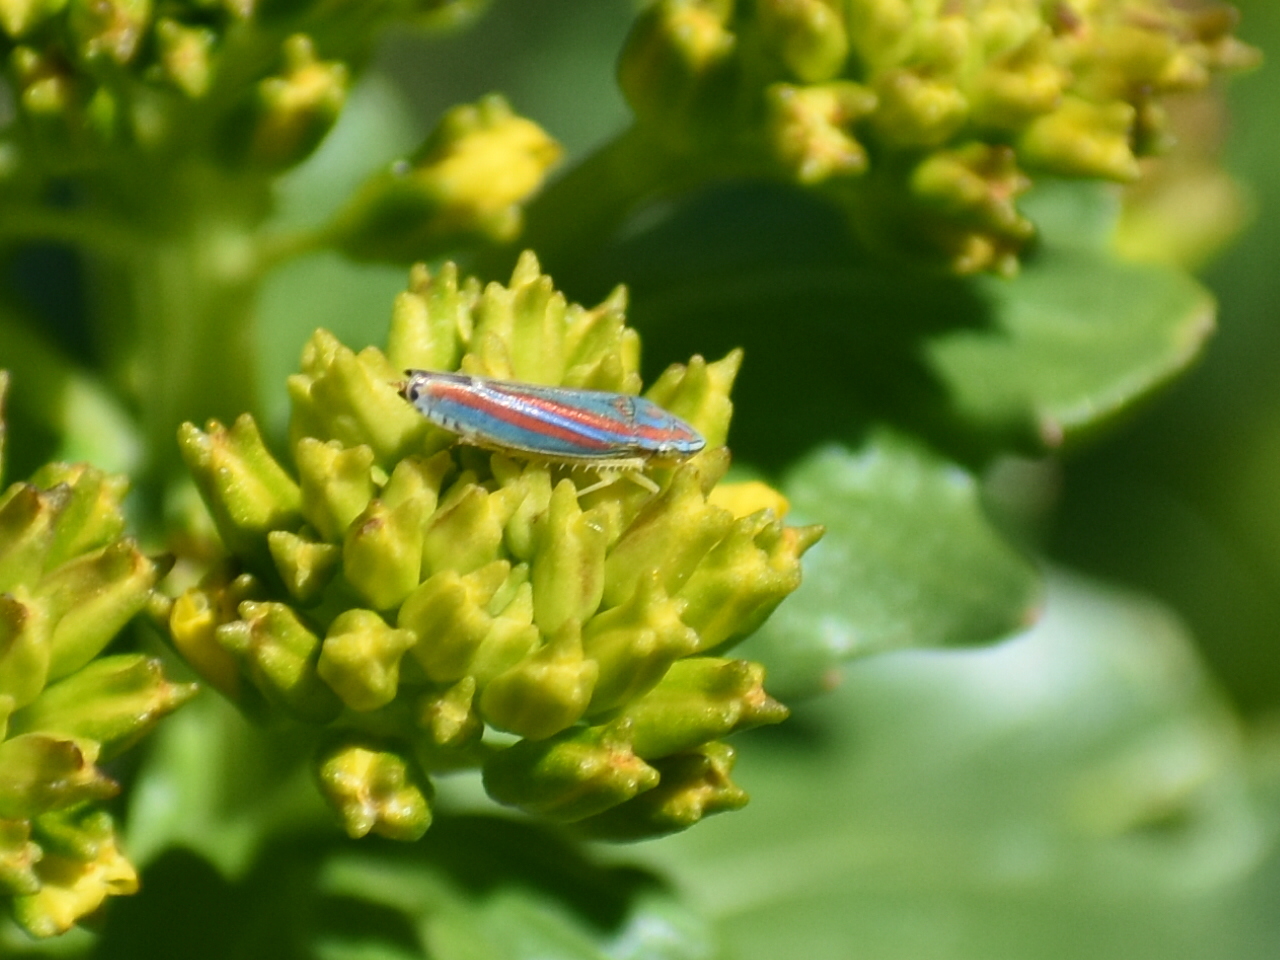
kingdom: Animalia
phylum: Arthropoda
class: Insecta
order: Hemiptera
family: Cicadellidae
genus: Graphocephala
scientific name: Graphocephala versuta
